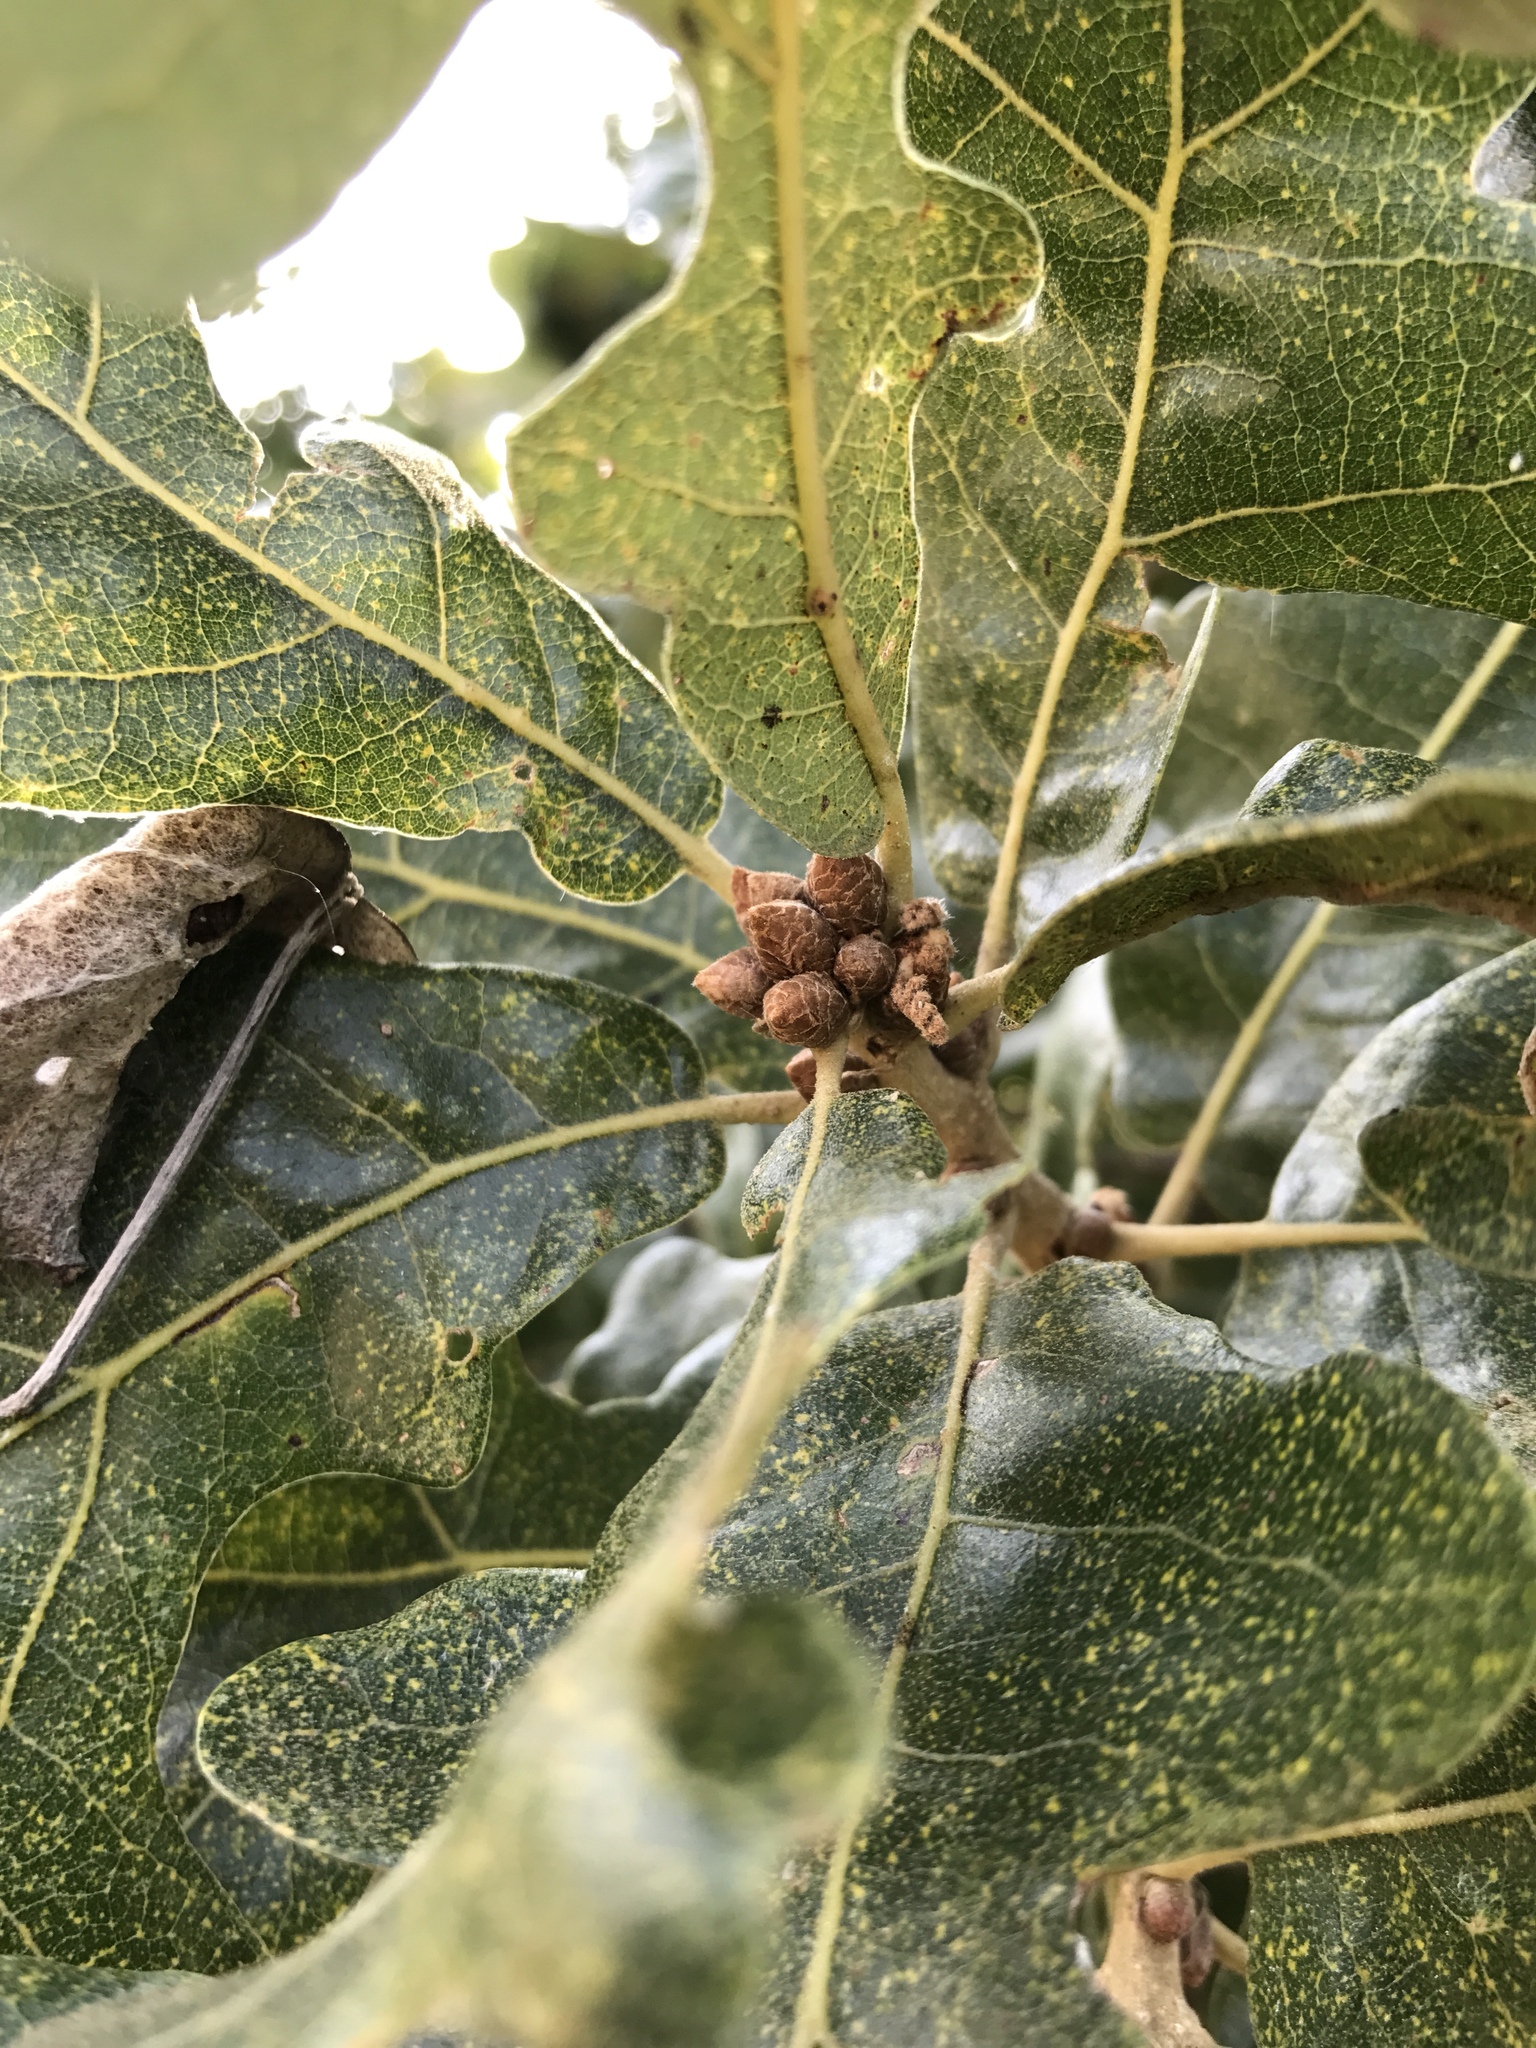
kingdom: Plantae
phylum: Tracheophyta
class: Magnoliopsida
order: Fagales
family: Fagaceae
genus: Quercus
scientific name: Quercus stellata
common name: Post oak
